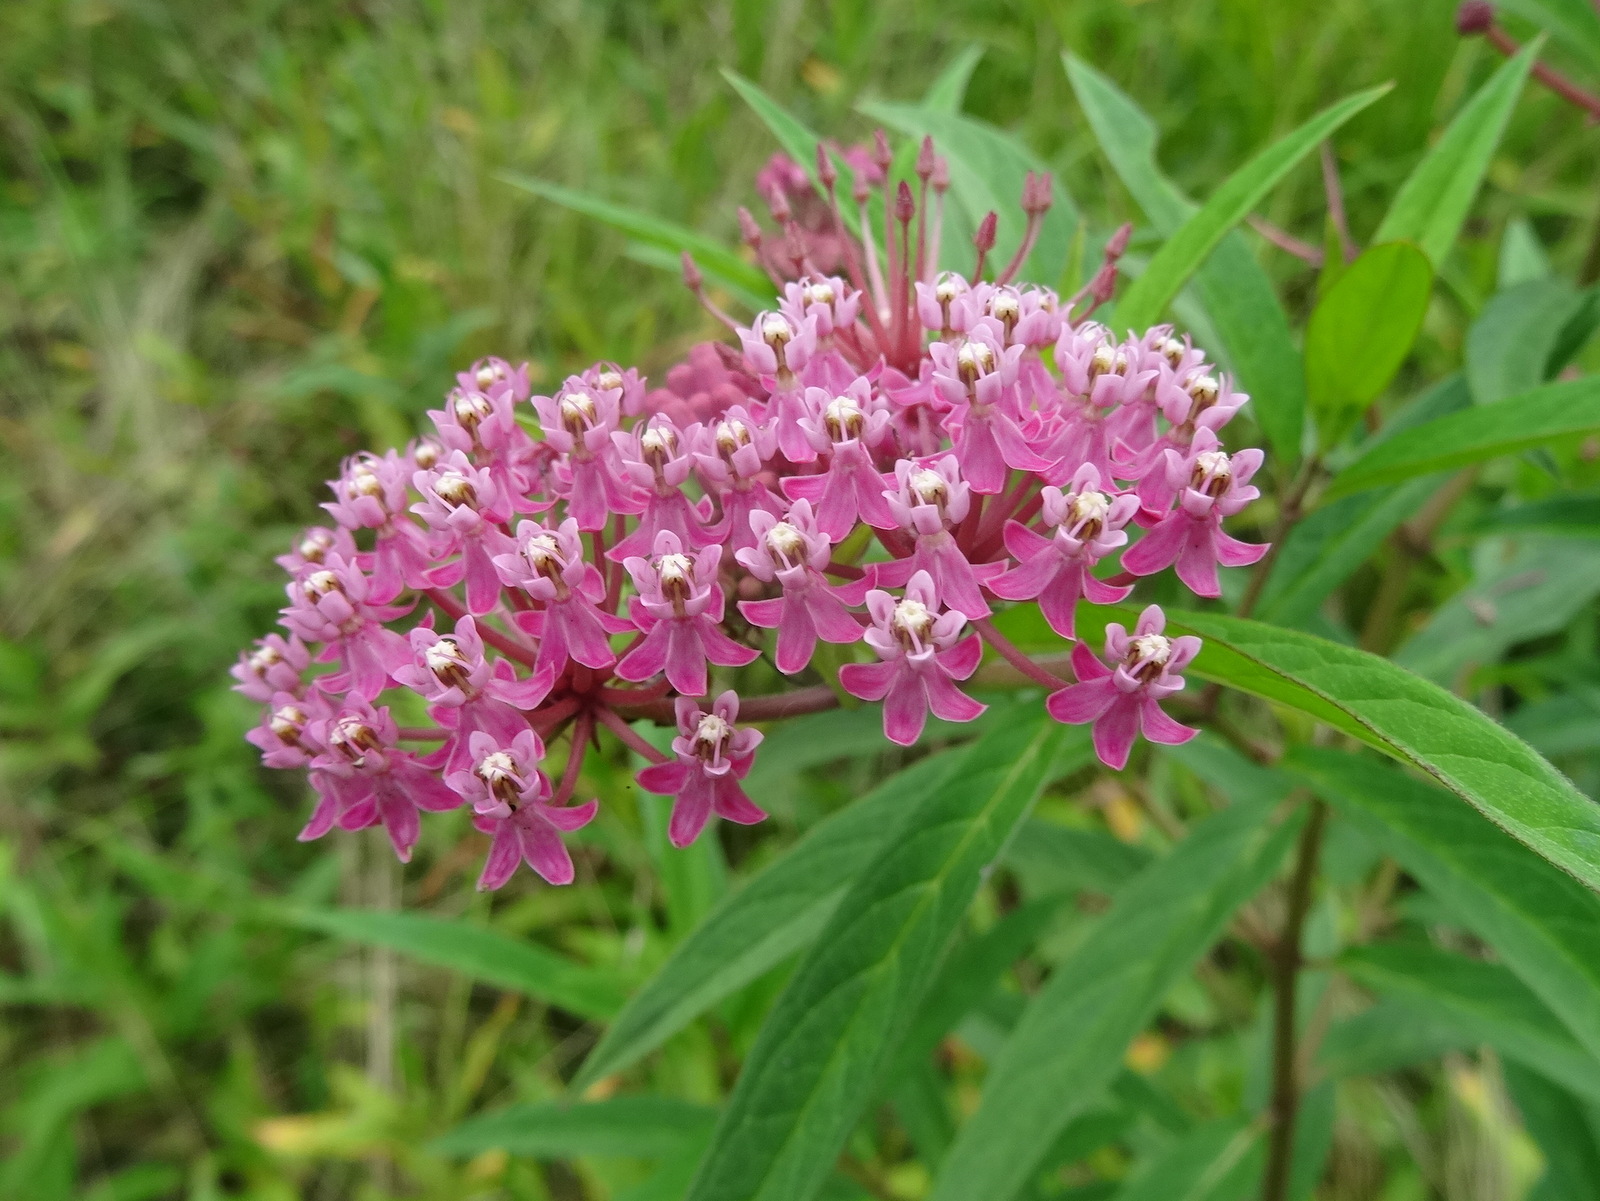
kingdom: Plantae
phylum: Tracheophyta
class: Magnoliopsida
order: Gentianales
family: Apocynaceae
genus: Asclepias
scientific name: Asclepias incarnata
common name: Swamp milkweed
